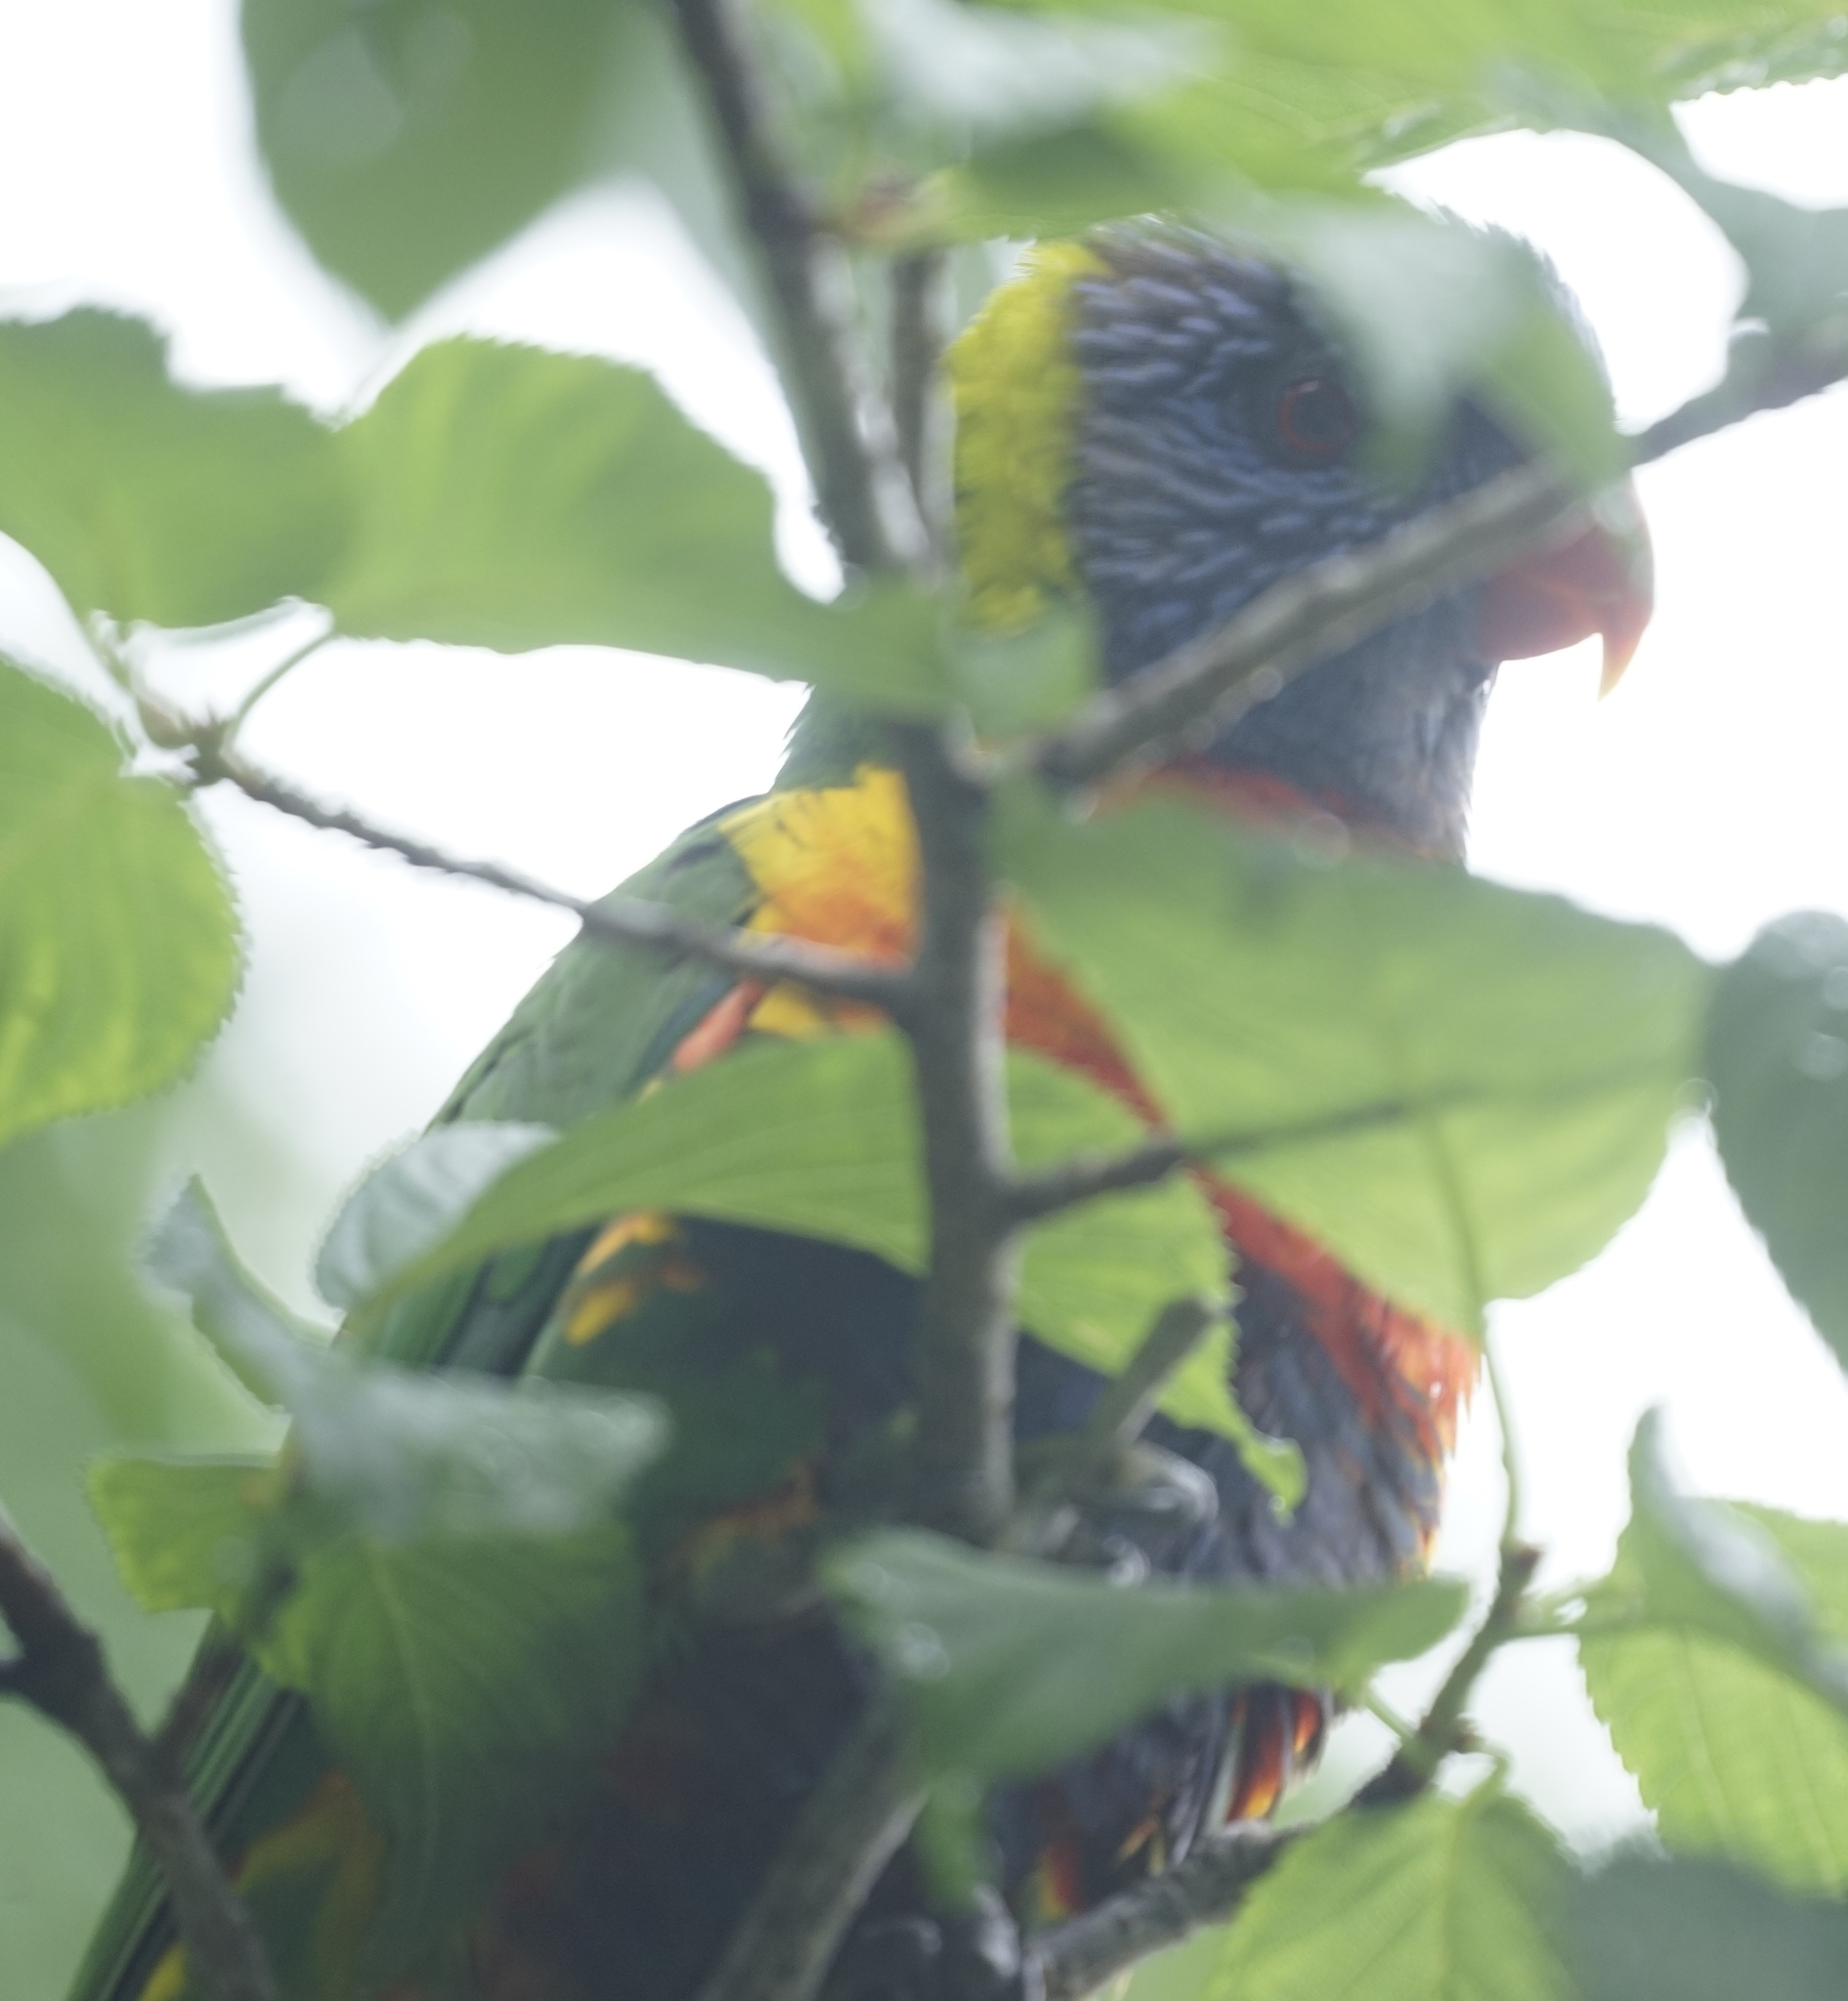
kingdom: Animalia
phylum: Chordata
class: Aves
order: Psittaciformes
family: Psittacidae
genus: Trichoglossus
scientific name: Trichoglossus haematodus
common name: Coconut lorikeet
